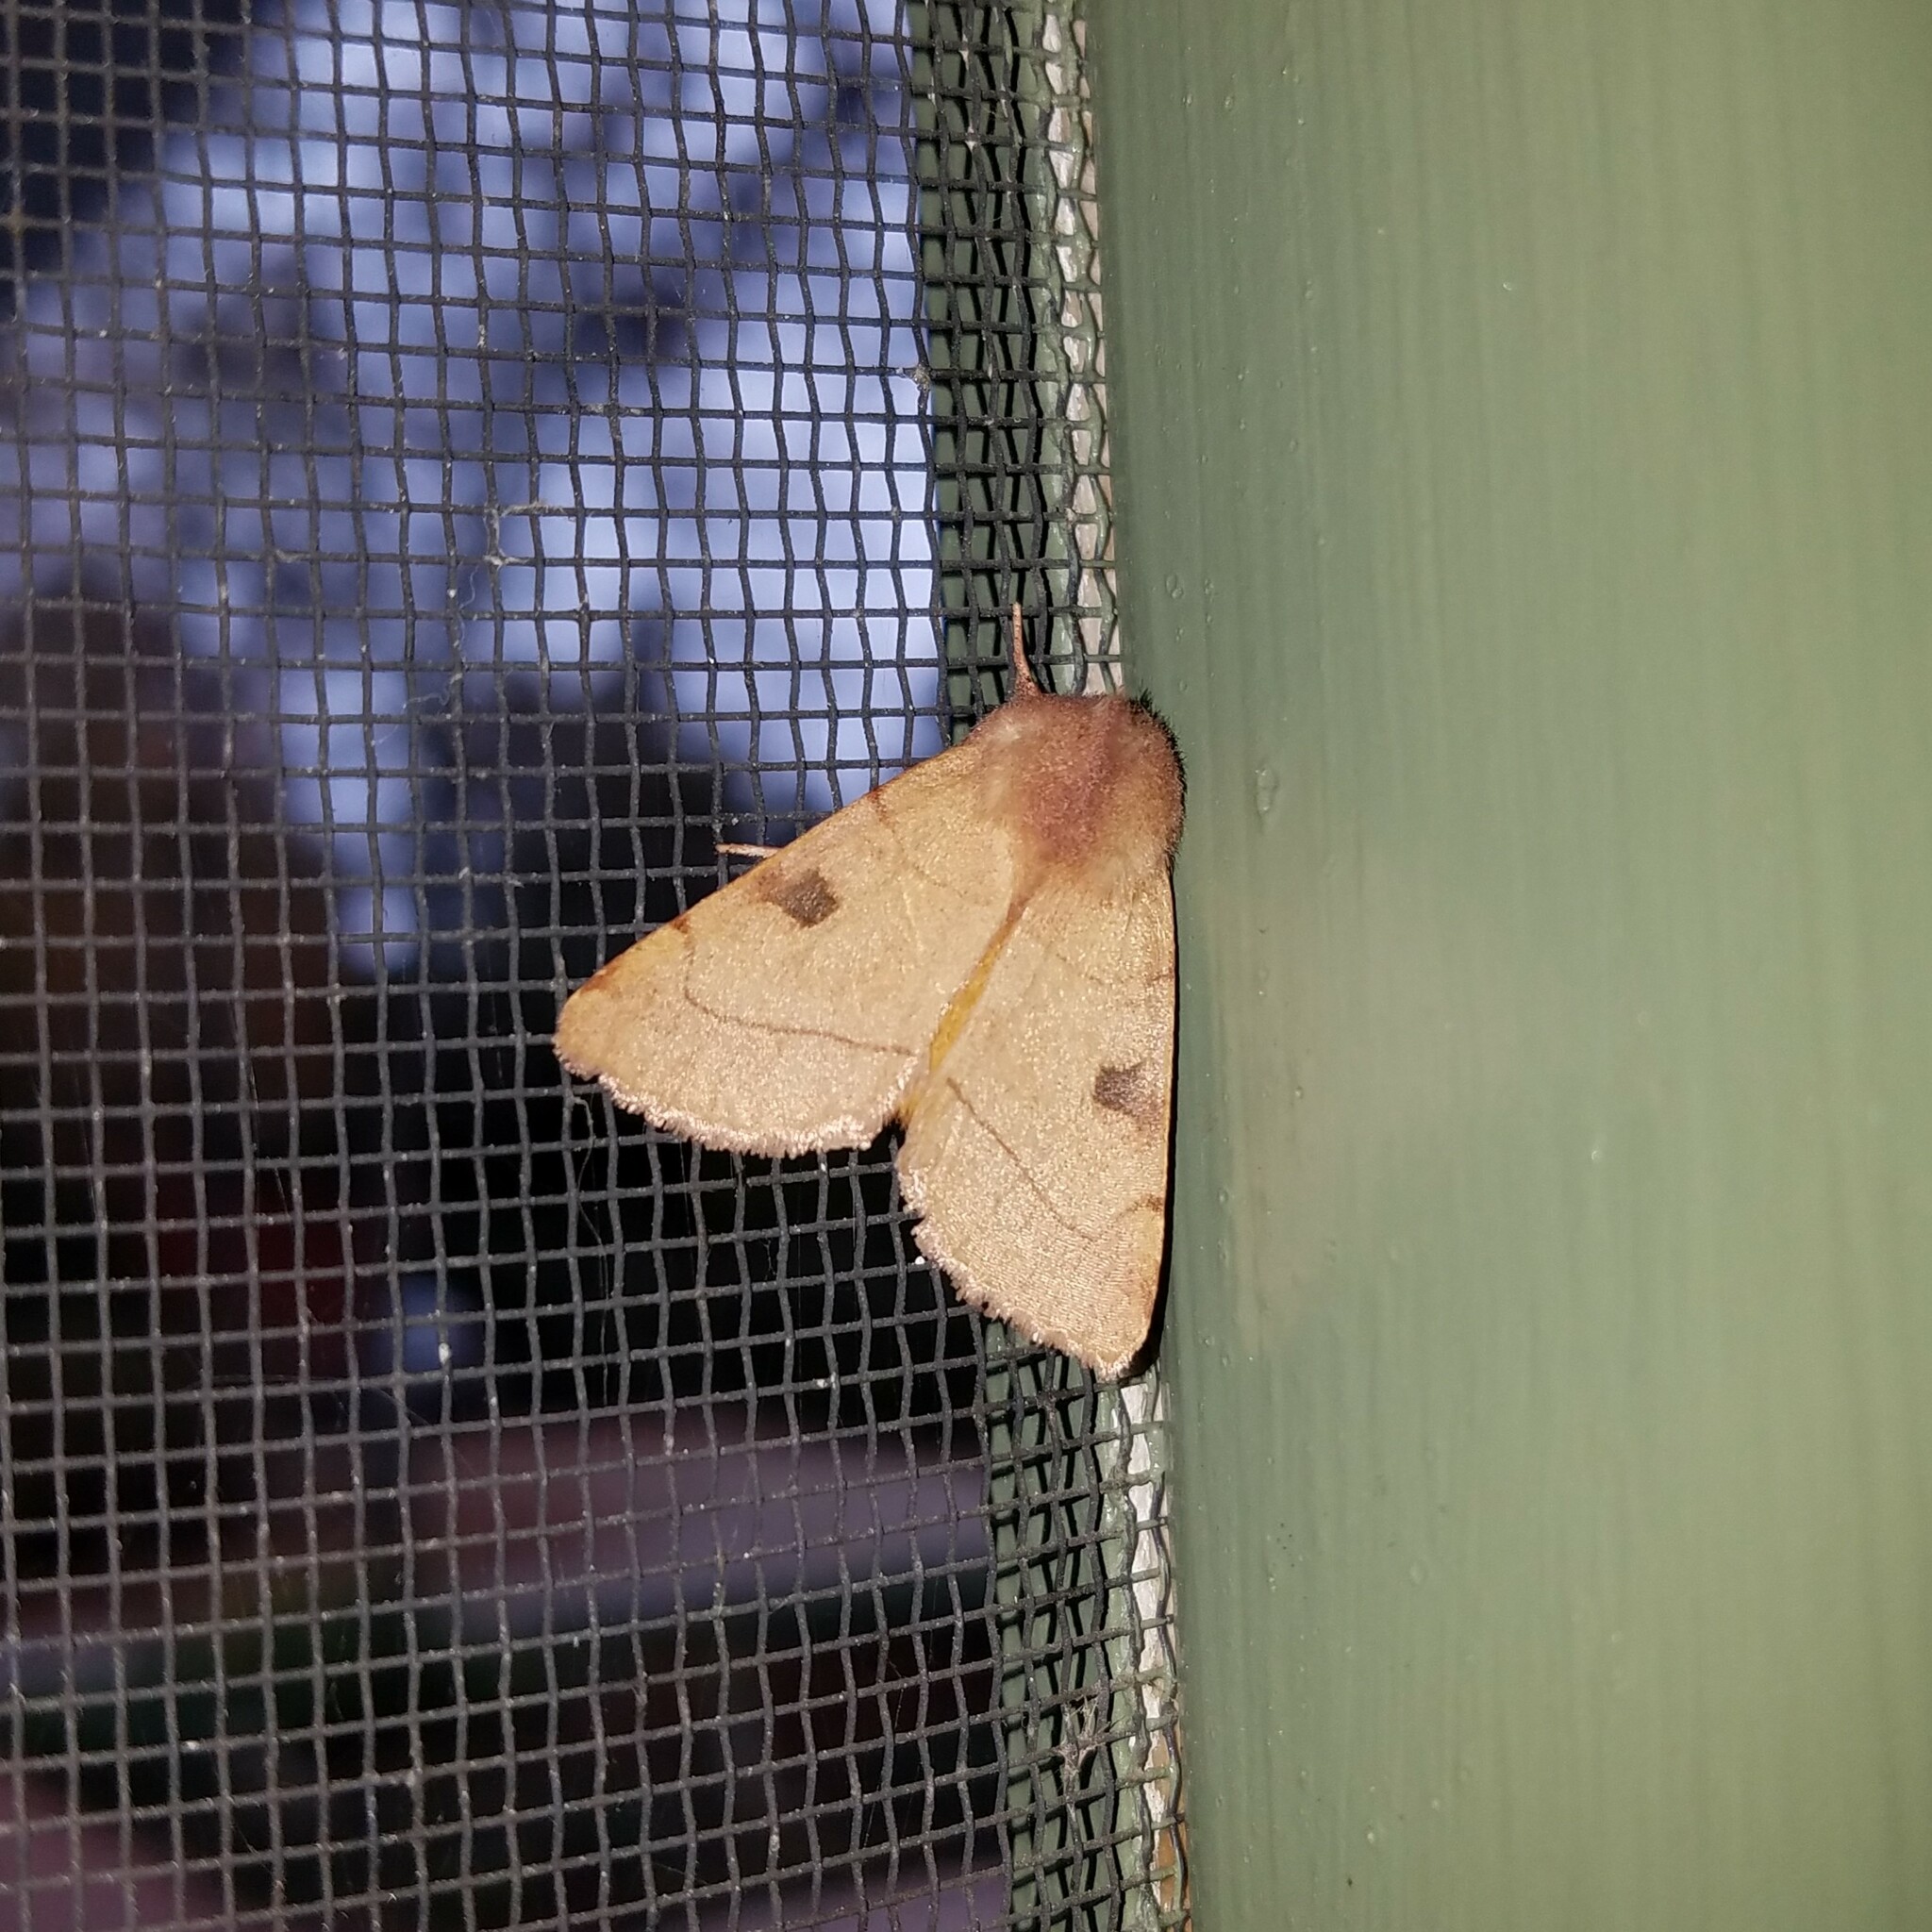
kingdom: Animalia
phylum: Arthropoda
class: Insecta
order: Lepidoptera
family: Noctuidae
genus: Choephora
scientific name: Choephora fungorum
